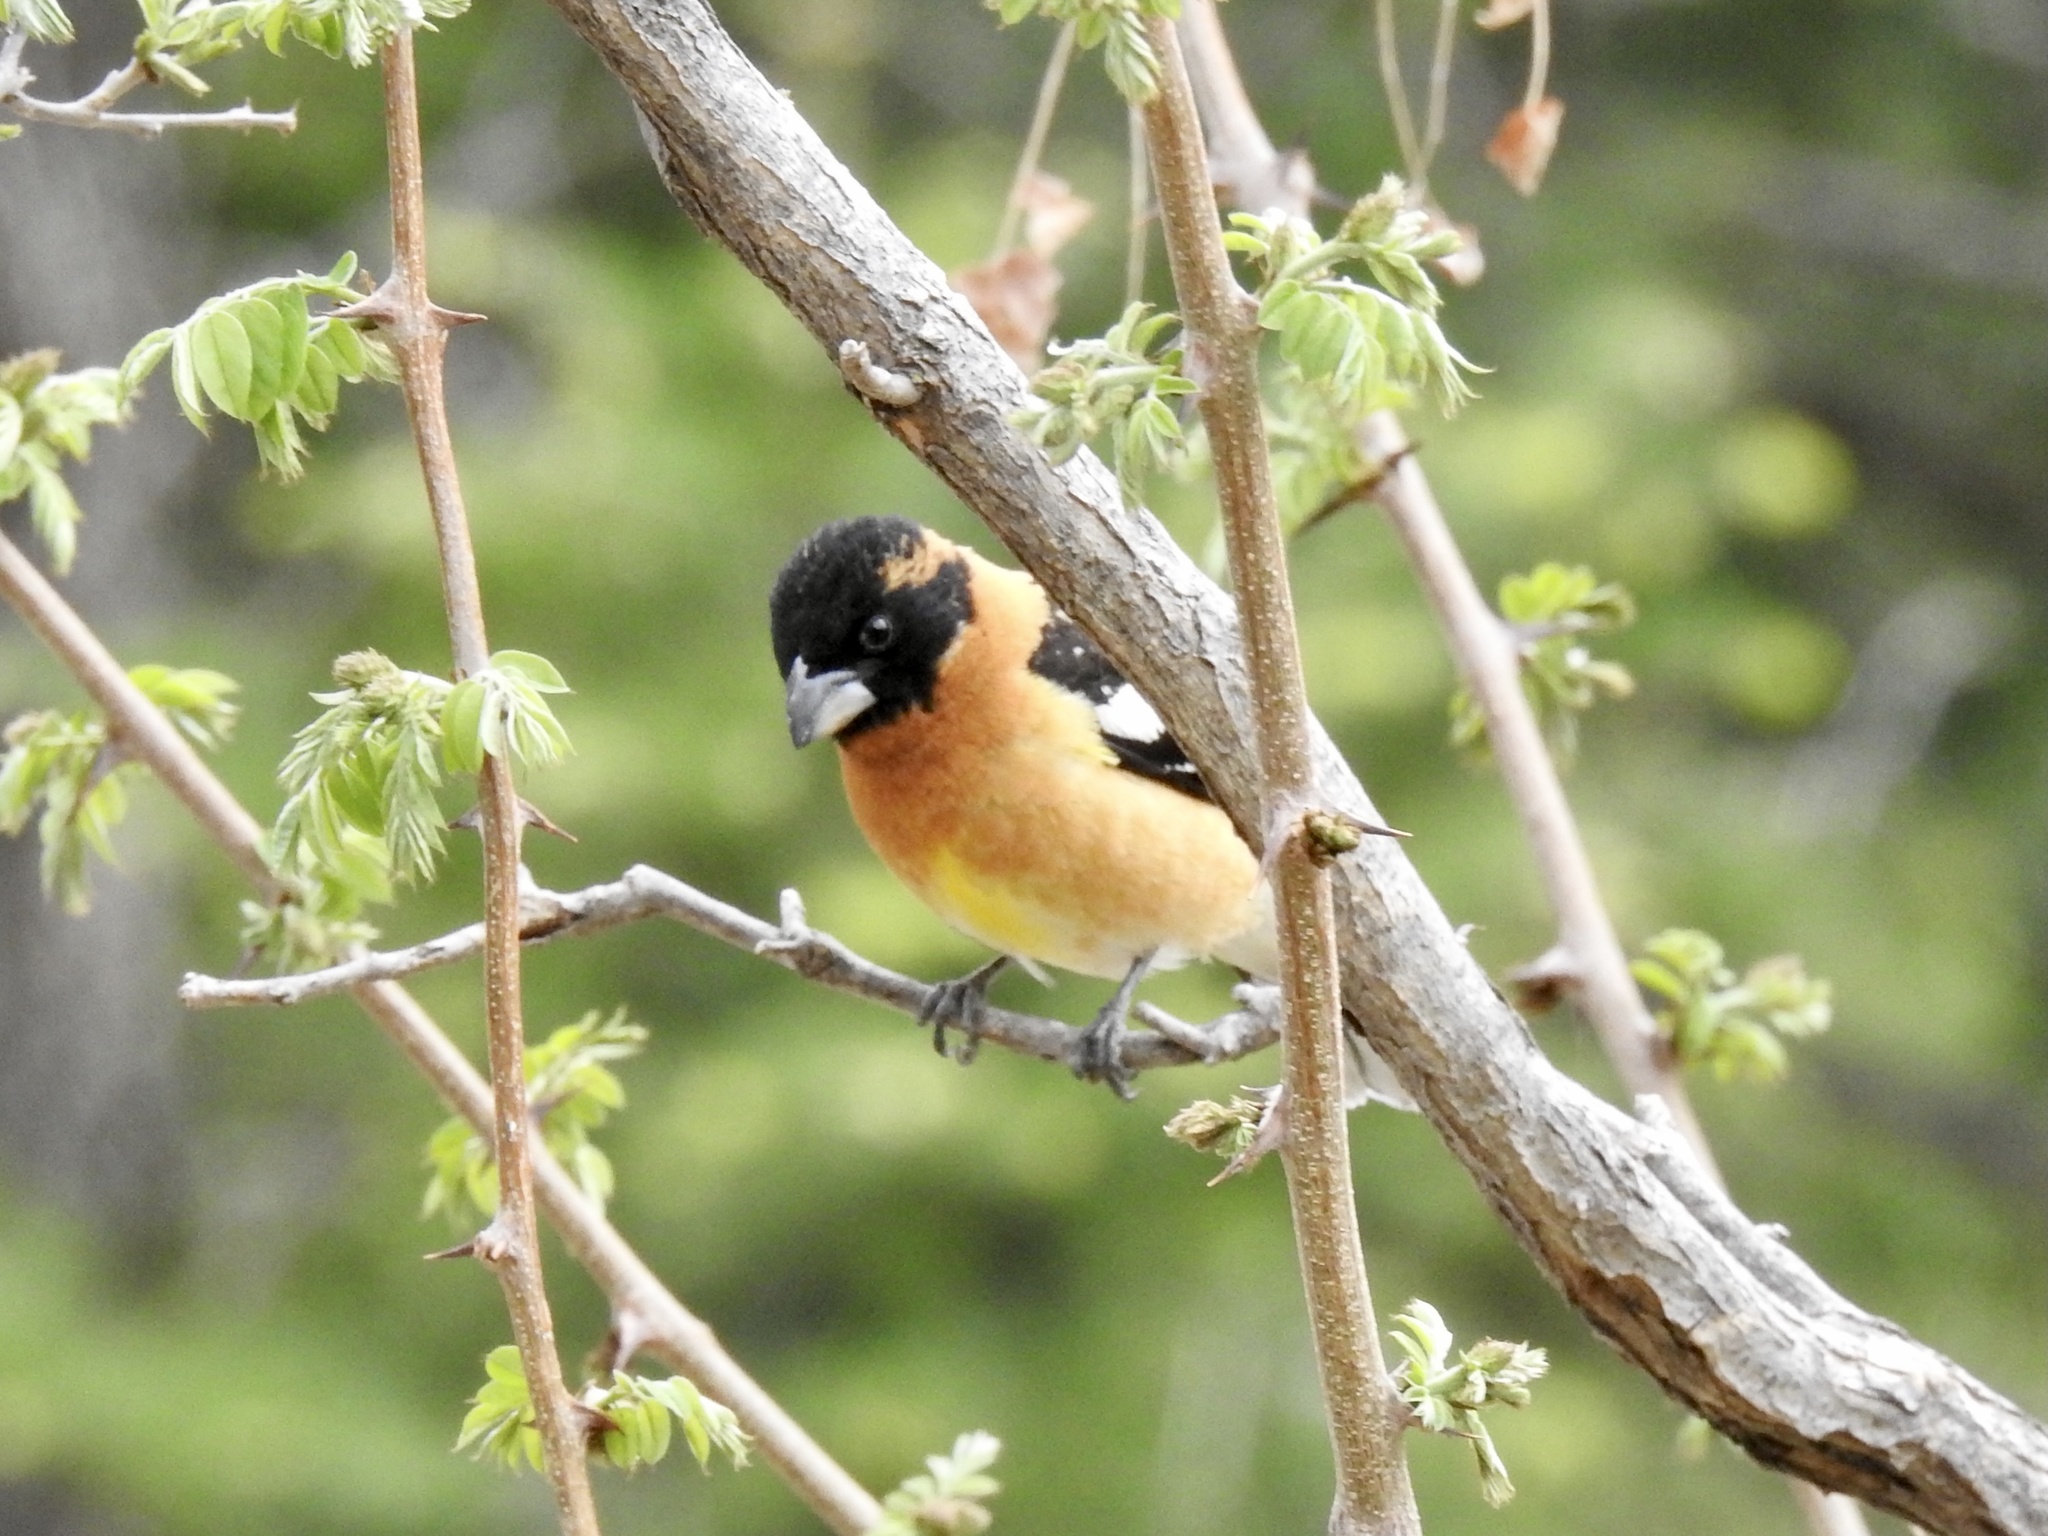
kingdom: Animalia
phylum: Chordata
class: Aves
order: Passeriformes
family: Cardinalidae
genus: Pheucticus
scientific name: Pheucticus melanocephalus
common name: Black-headed grosbeak
